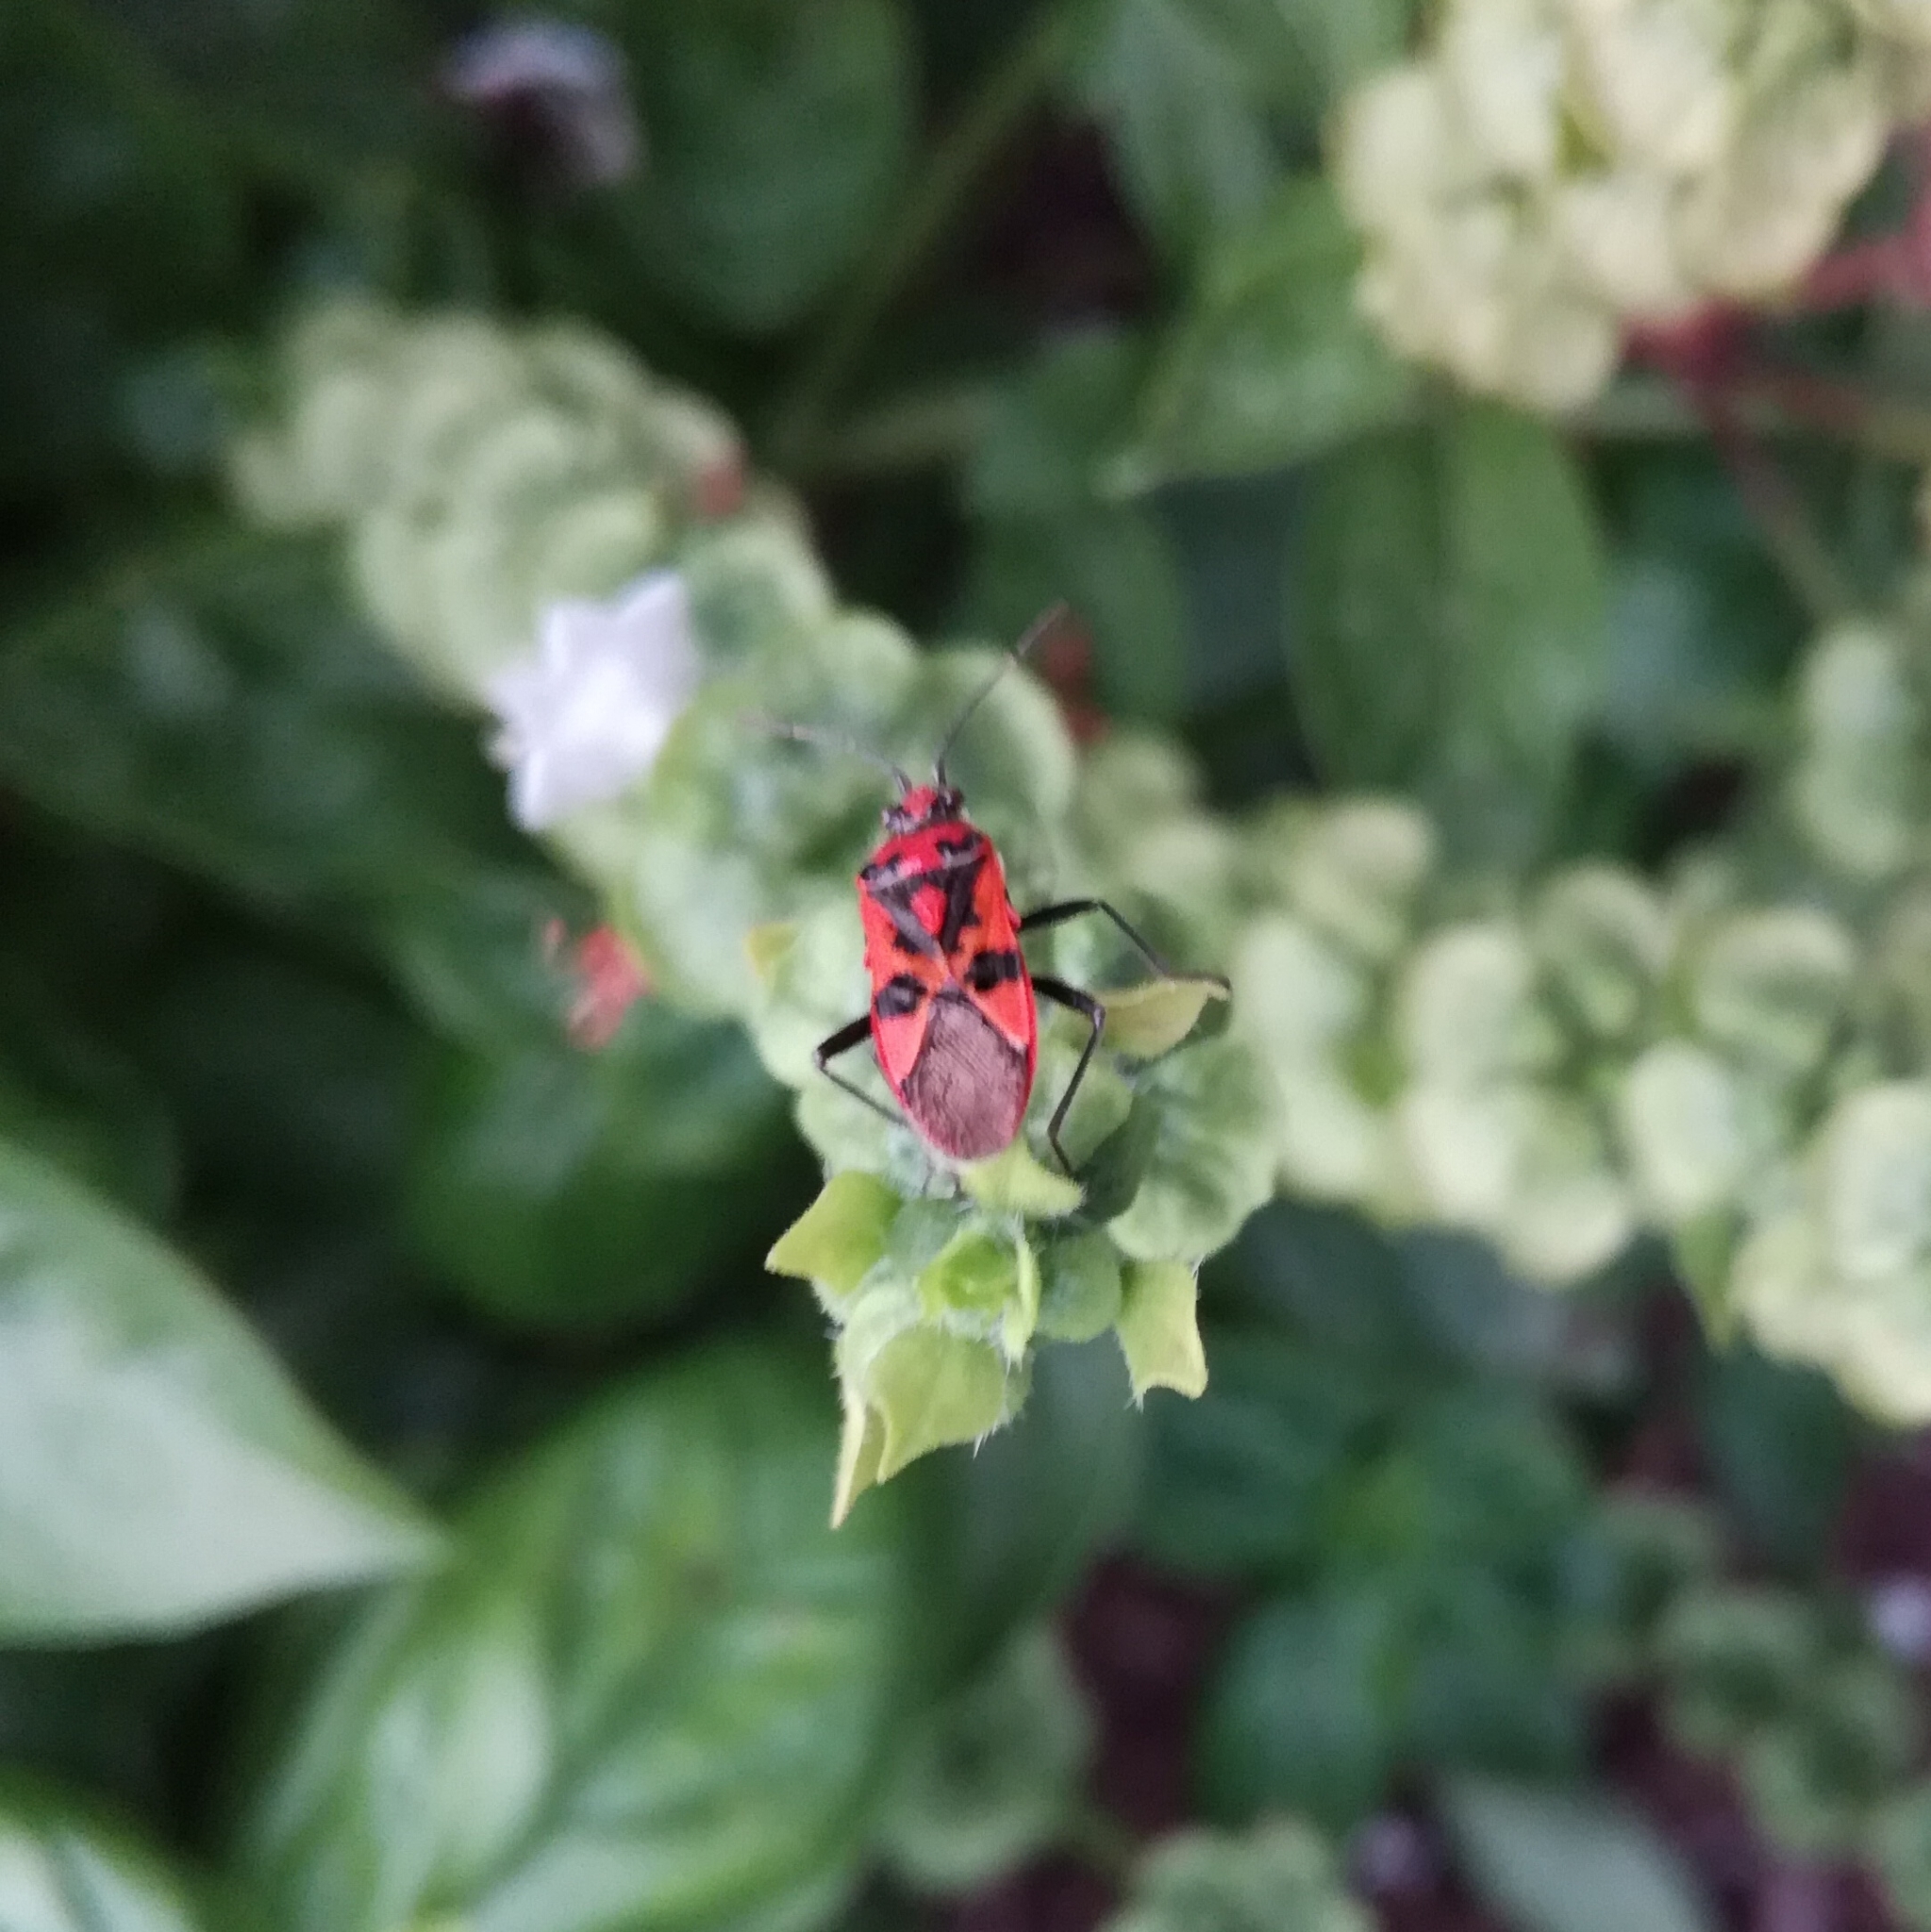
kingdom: Animalia
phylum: Arthropoda
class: Insecta
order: Hemiptera
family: Rhopalidae
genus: Corizus
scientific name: Corizus hyoscyami
